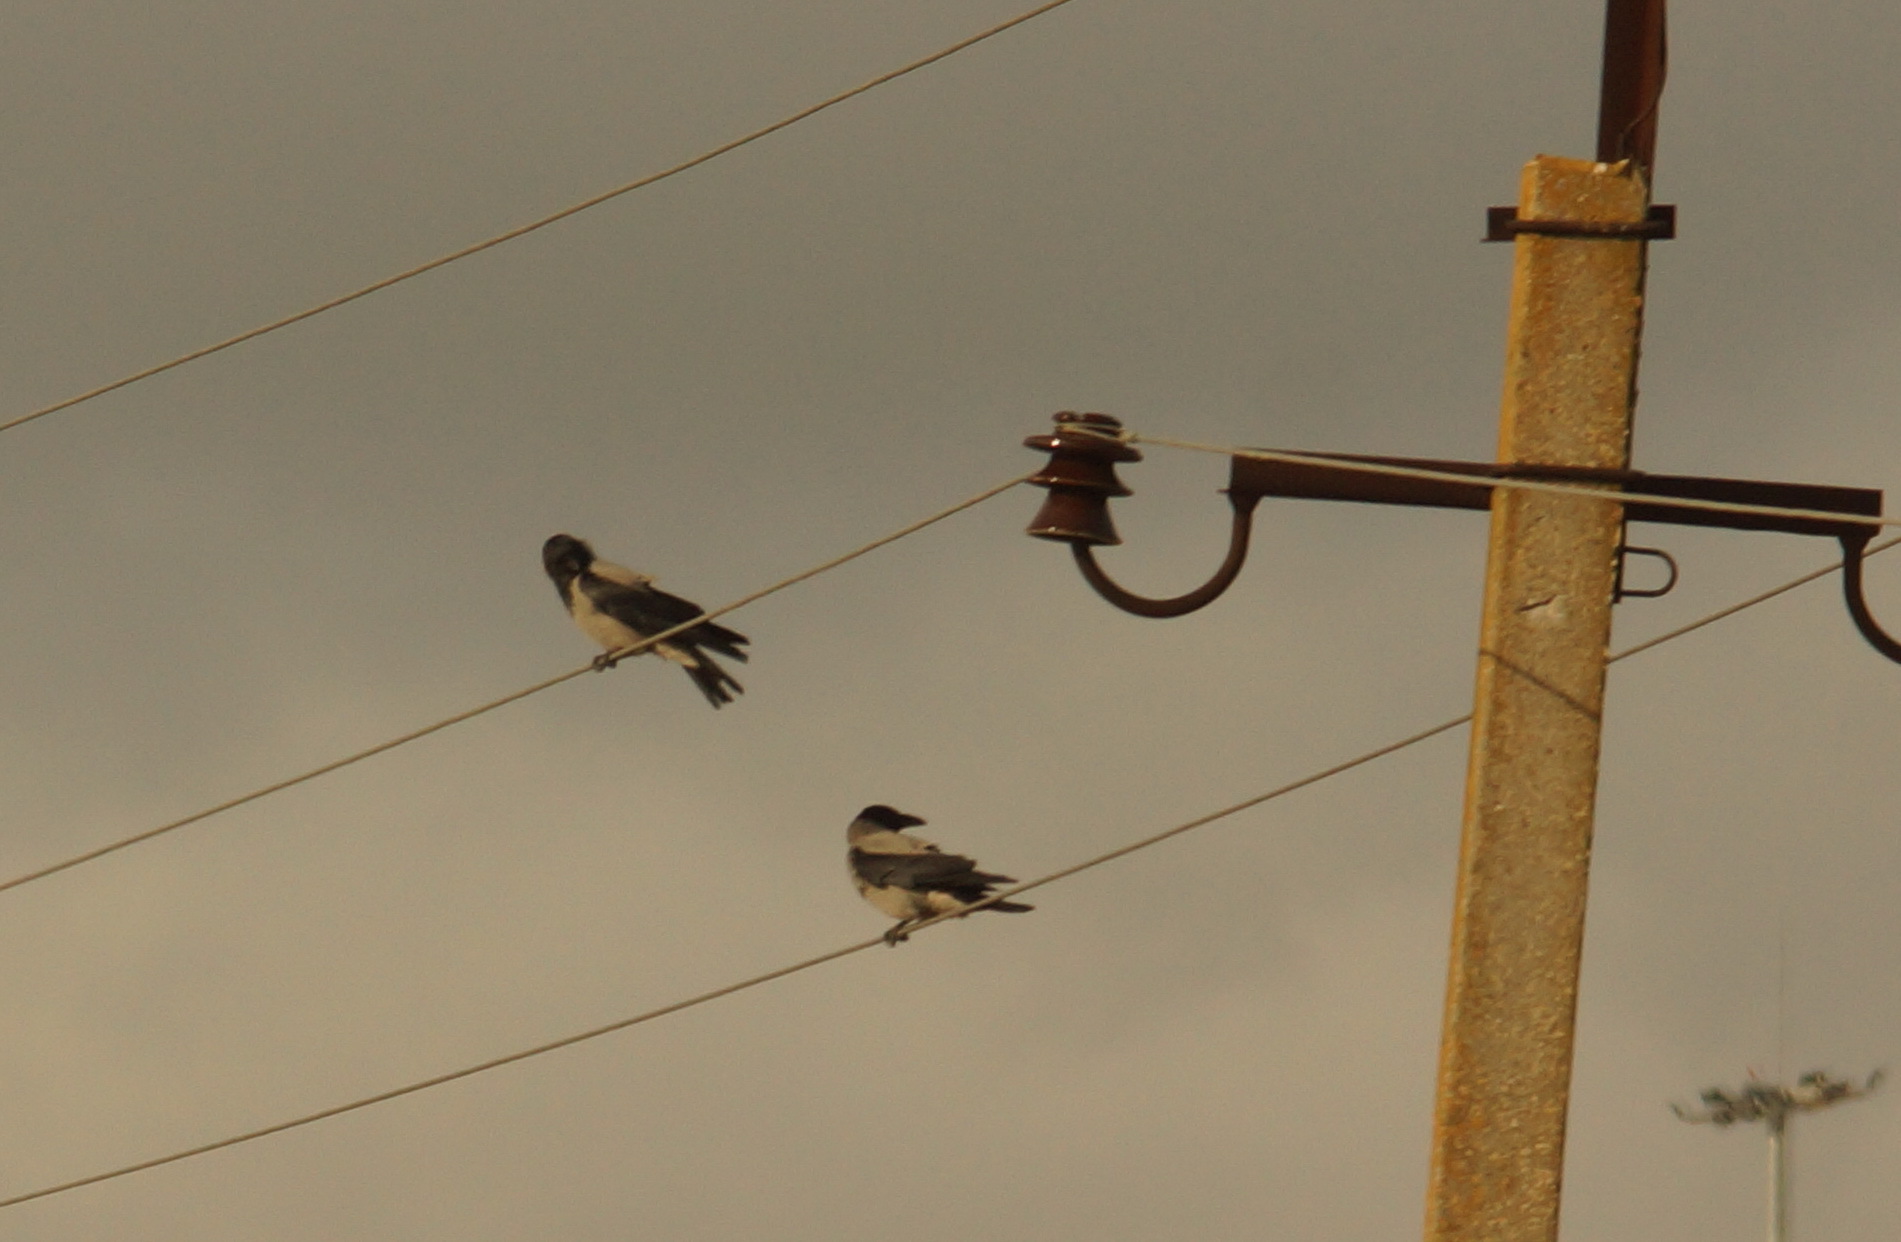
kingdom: Animalia
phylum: Chordata
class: Aves
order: Passeriformes
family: Corvidae
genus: Corvus
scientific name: Corvus cornix
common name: Hooded crow
